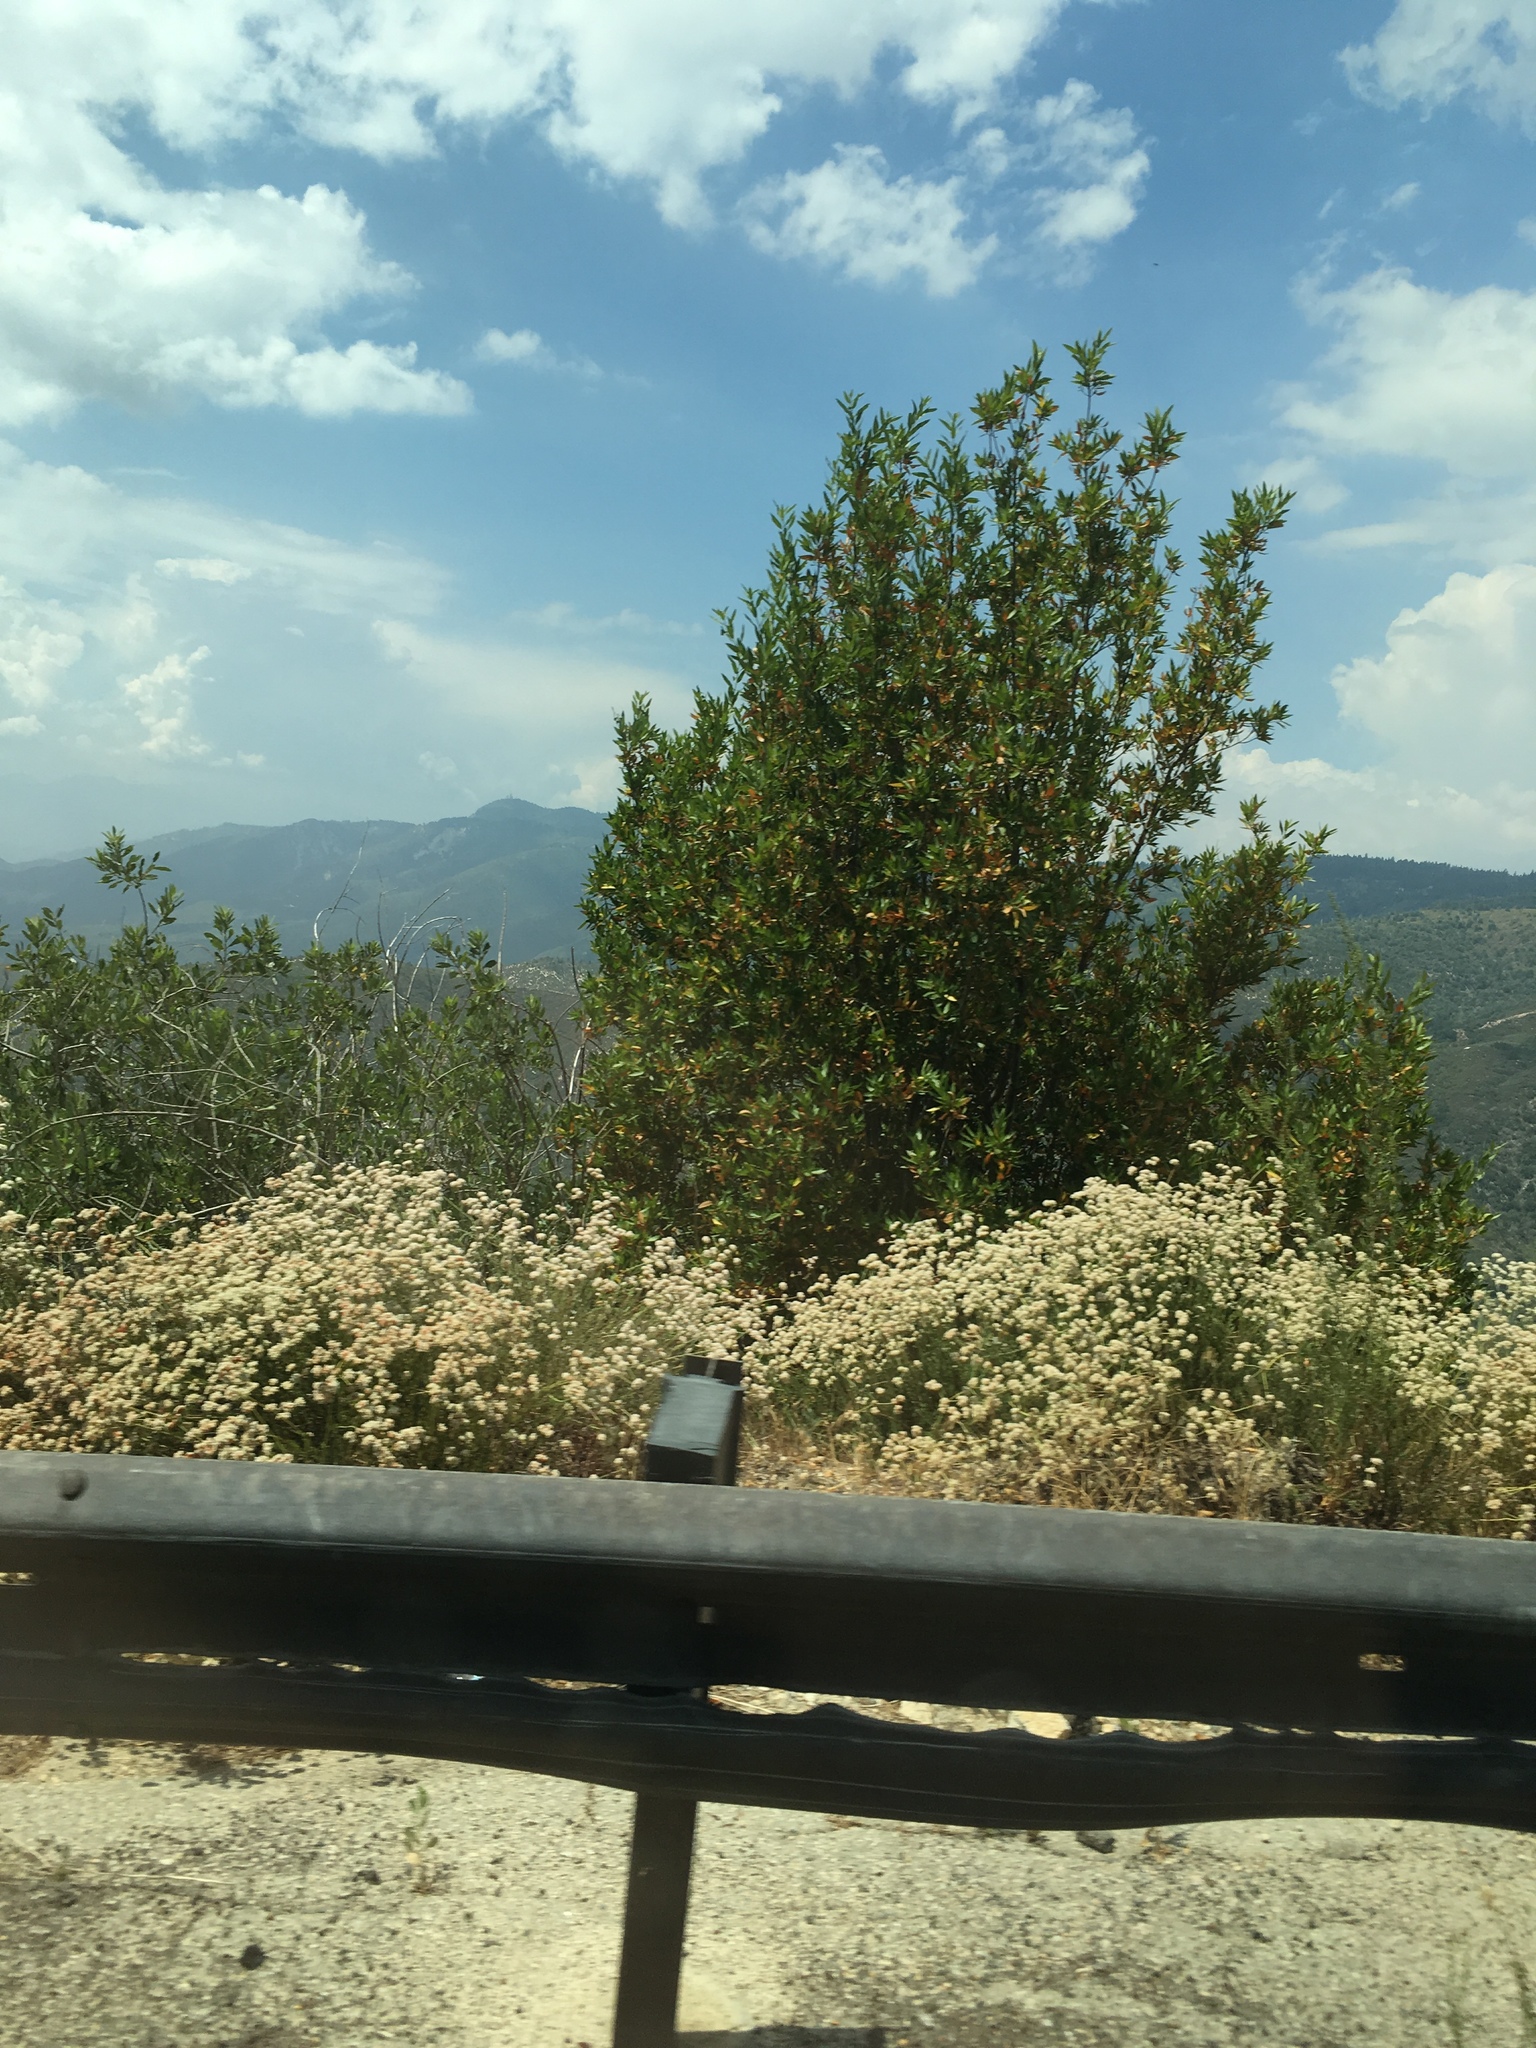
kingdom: Plantae
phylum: Tracheophyta
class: Magnoliopsida
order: Caryophyllales
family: Polygonaceae
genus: Eriogonum
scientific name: Eriogonum fasciculatum
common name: California wild buckwheat
